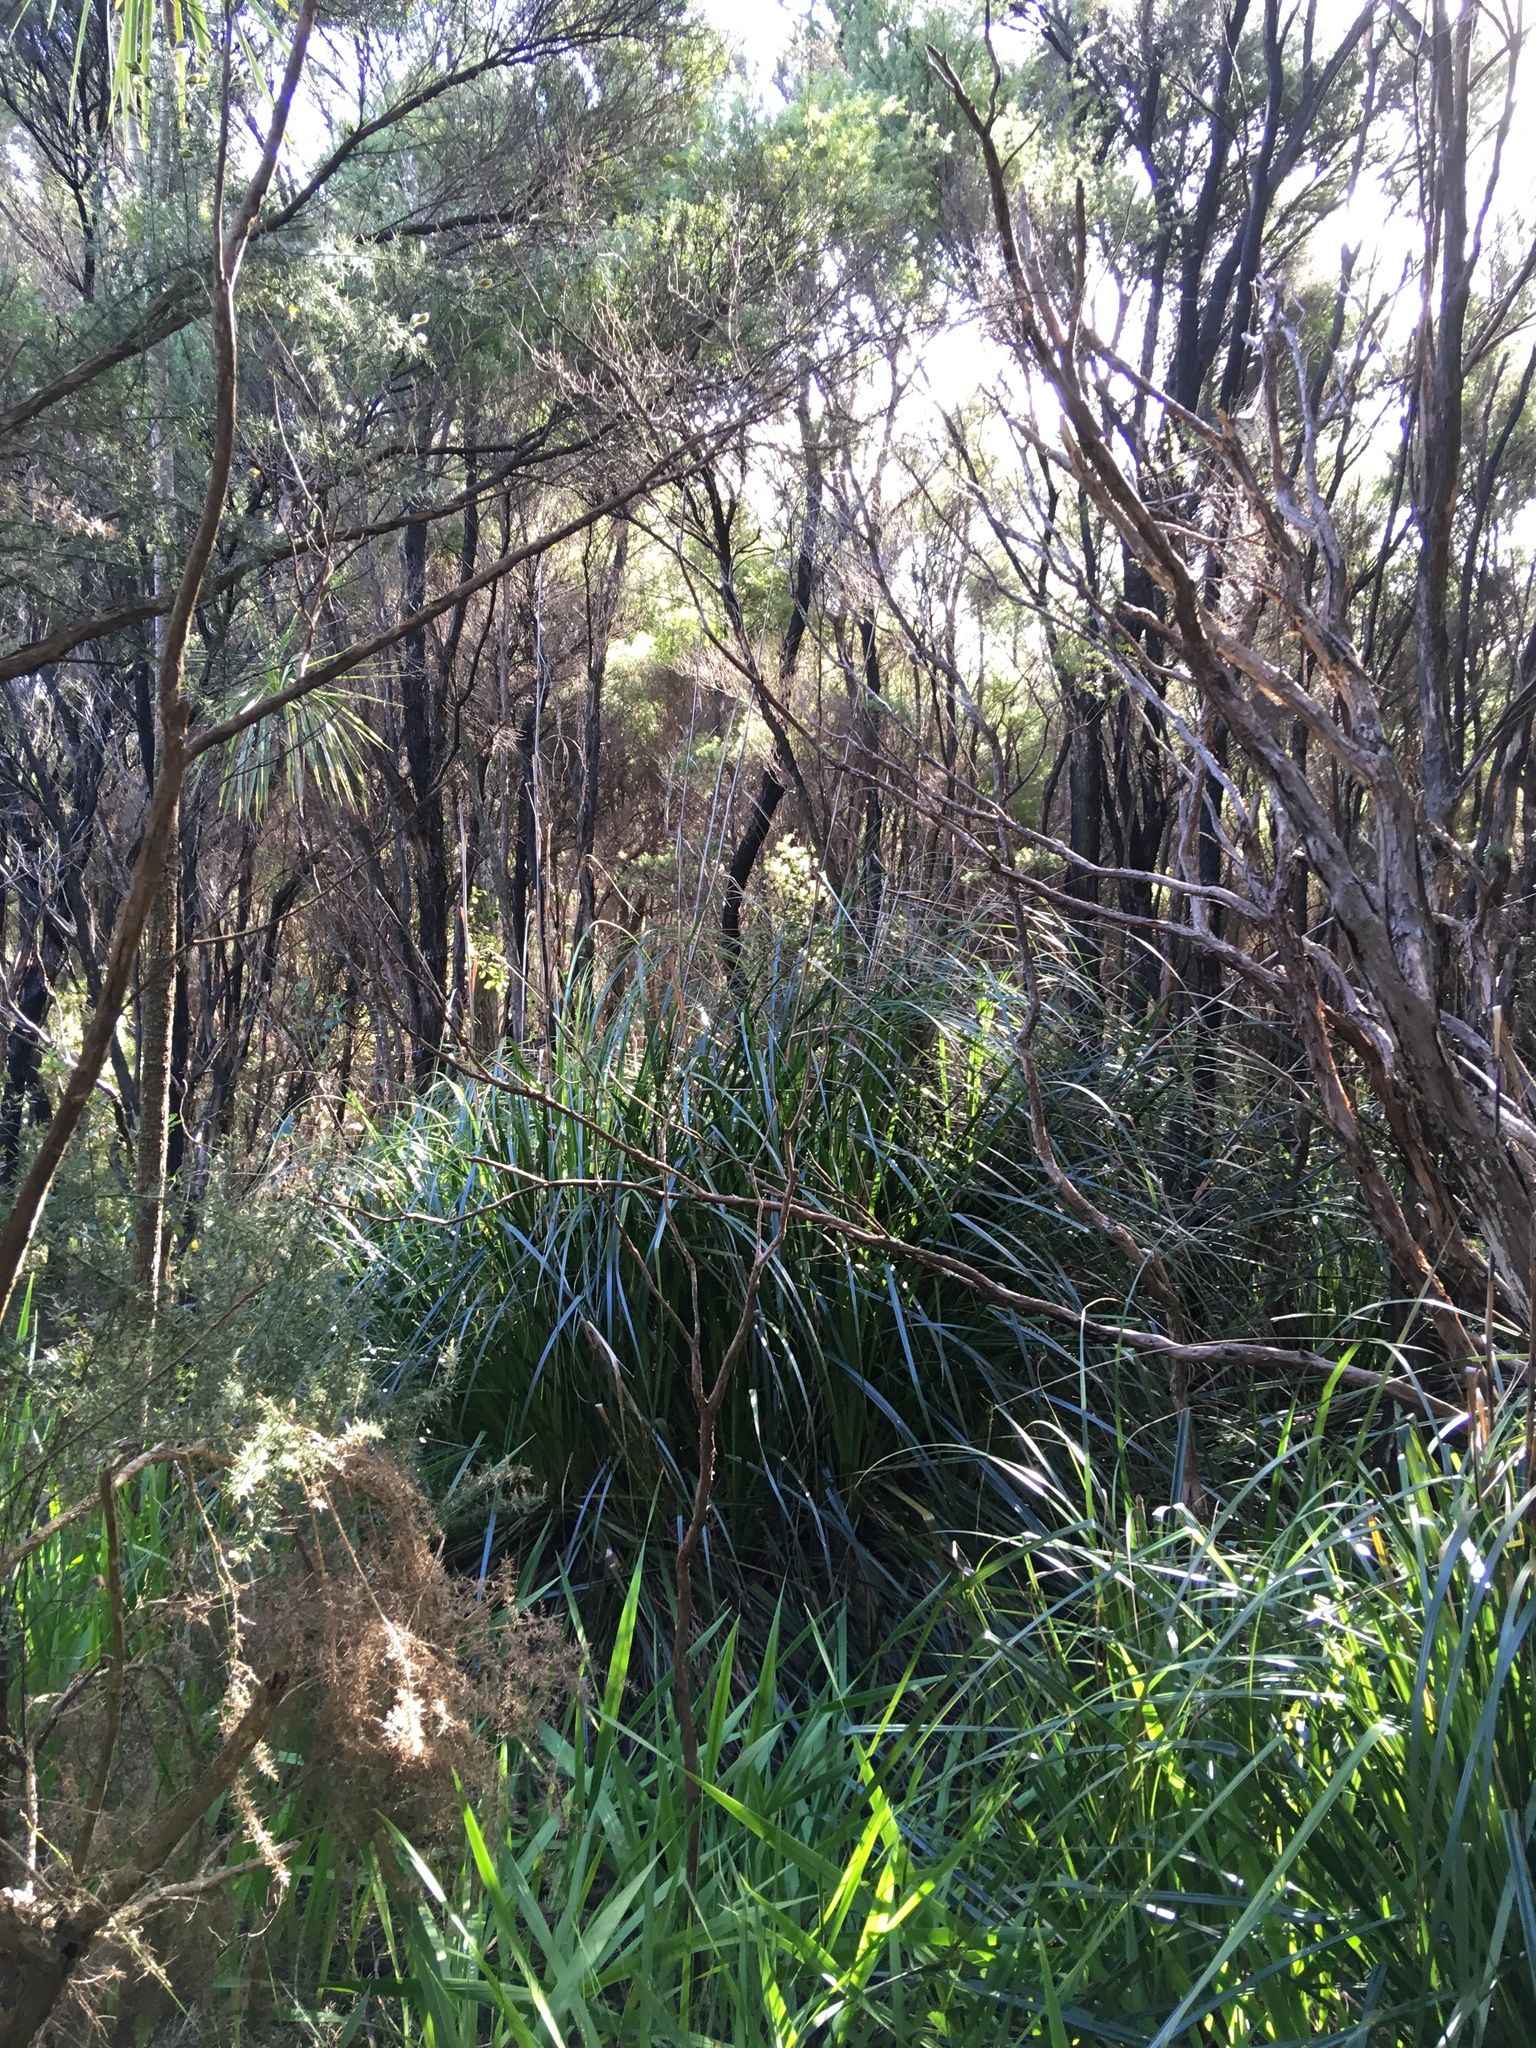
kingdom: Plantae
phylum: Tracheophyta
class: Liliopsida
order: Asparagales
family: Asparagaceae
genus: Cordyline
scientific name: Cordyline rubra
